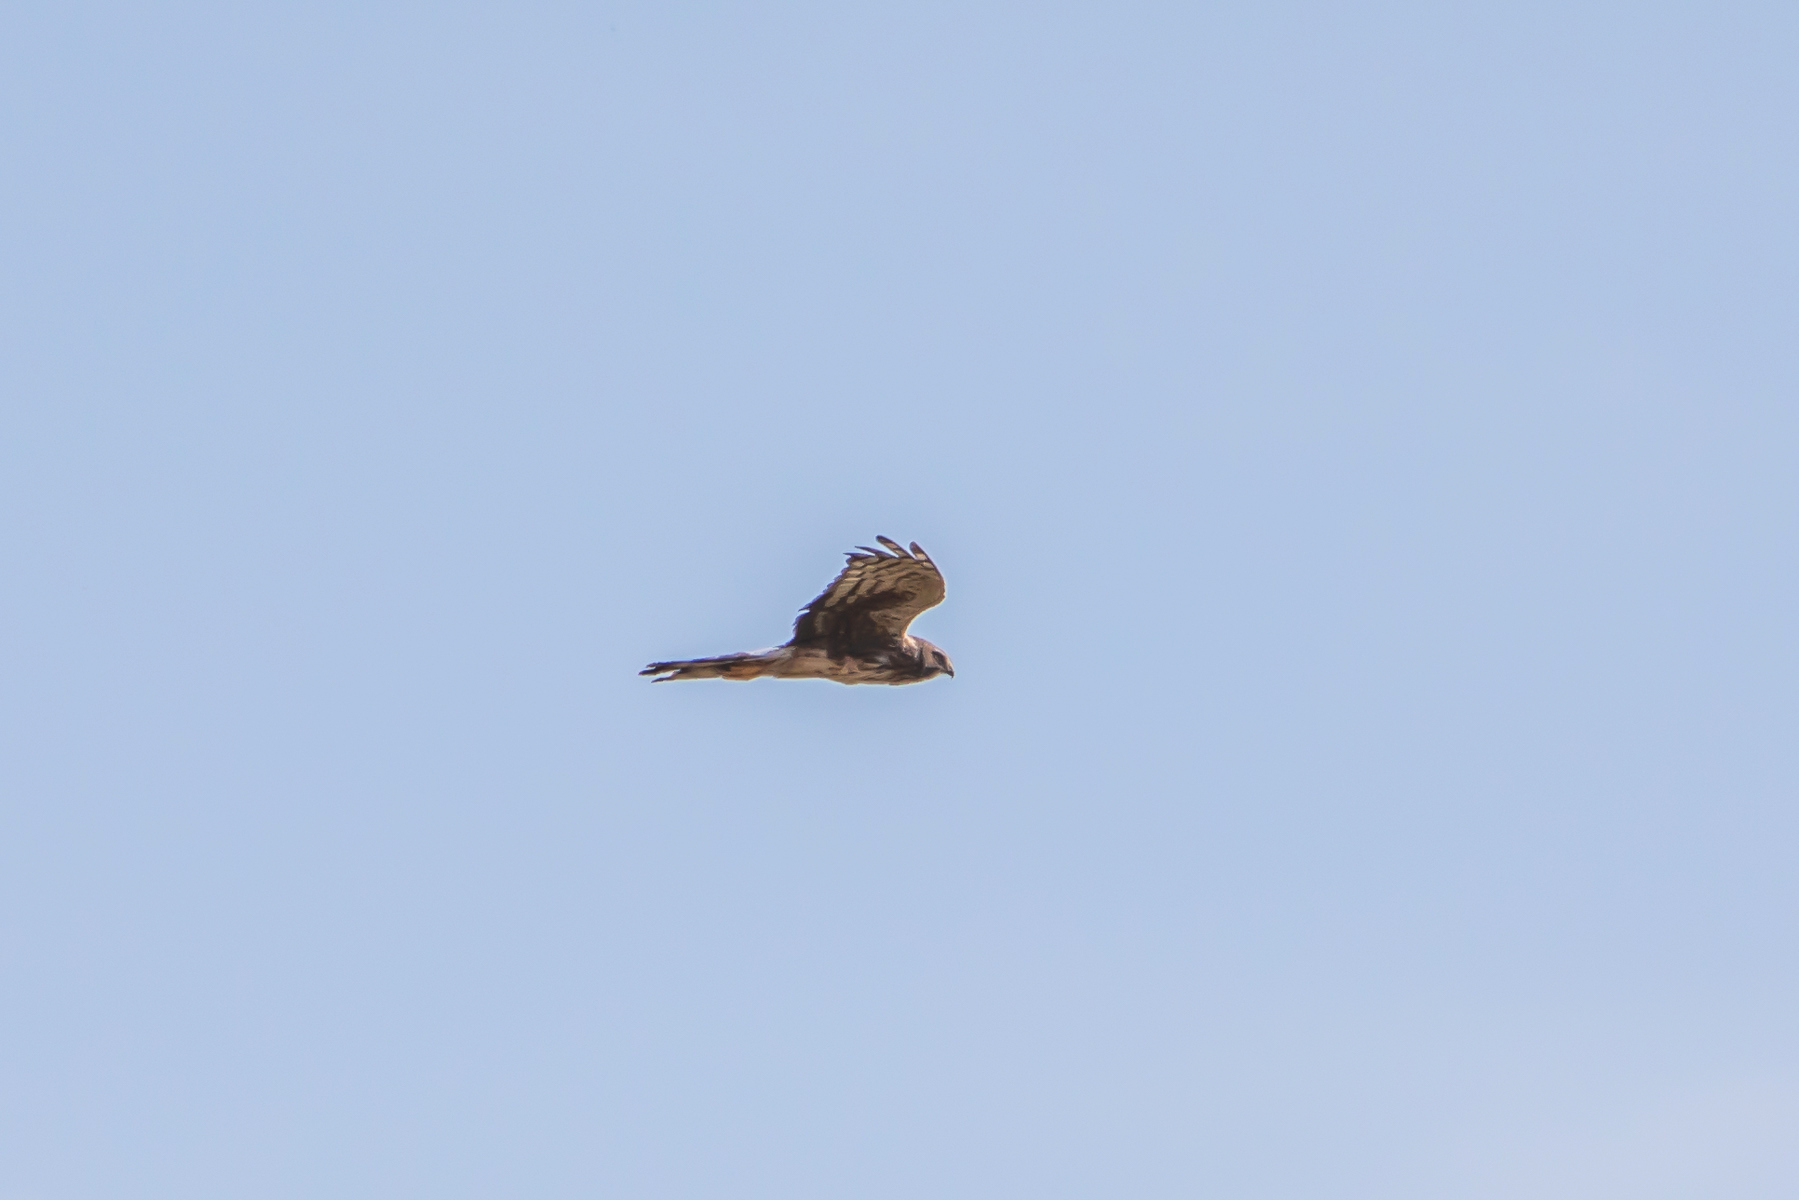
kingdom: Animalia
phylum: Chordata
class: Aves
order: Accipitriformes
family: Accipitridae
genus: Circus
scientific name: Circus cyaneus
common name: Hen harrier
